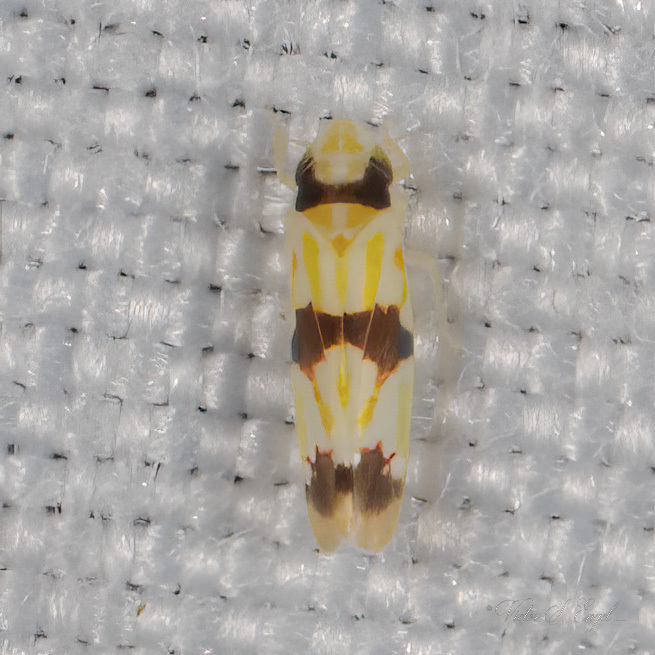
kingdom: Animalia
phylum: Arthropoda
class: Insecta
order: Hemiptera
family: Cicadellidae
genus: Erythroneura
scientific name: Erythroneura tricincta
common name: The threebanded grape leafhopper
